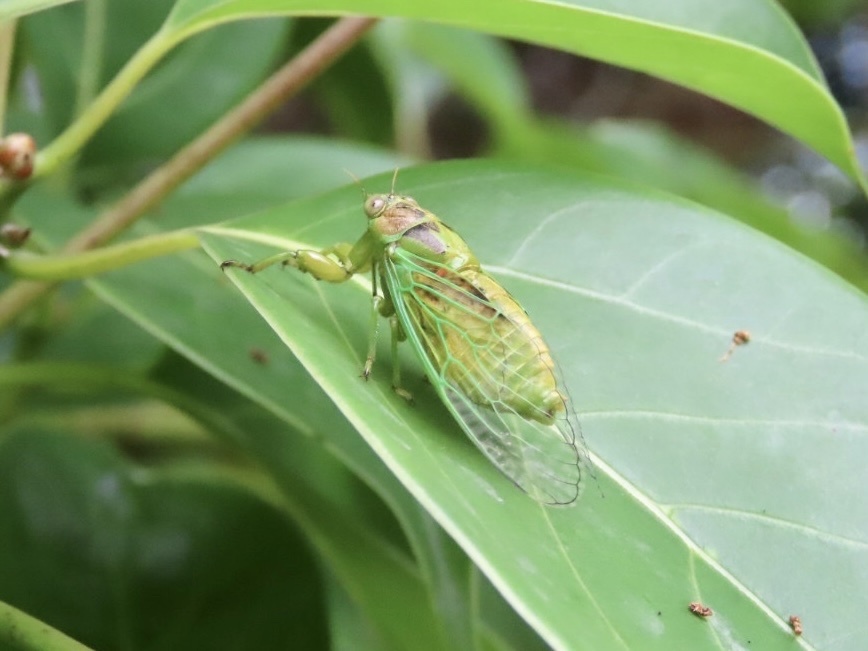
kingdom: Animalia
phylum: Arthropoda
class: Insecta
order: Hemiptera
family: Cicadidae
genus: Mogannia
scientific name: Mogannia hebes
